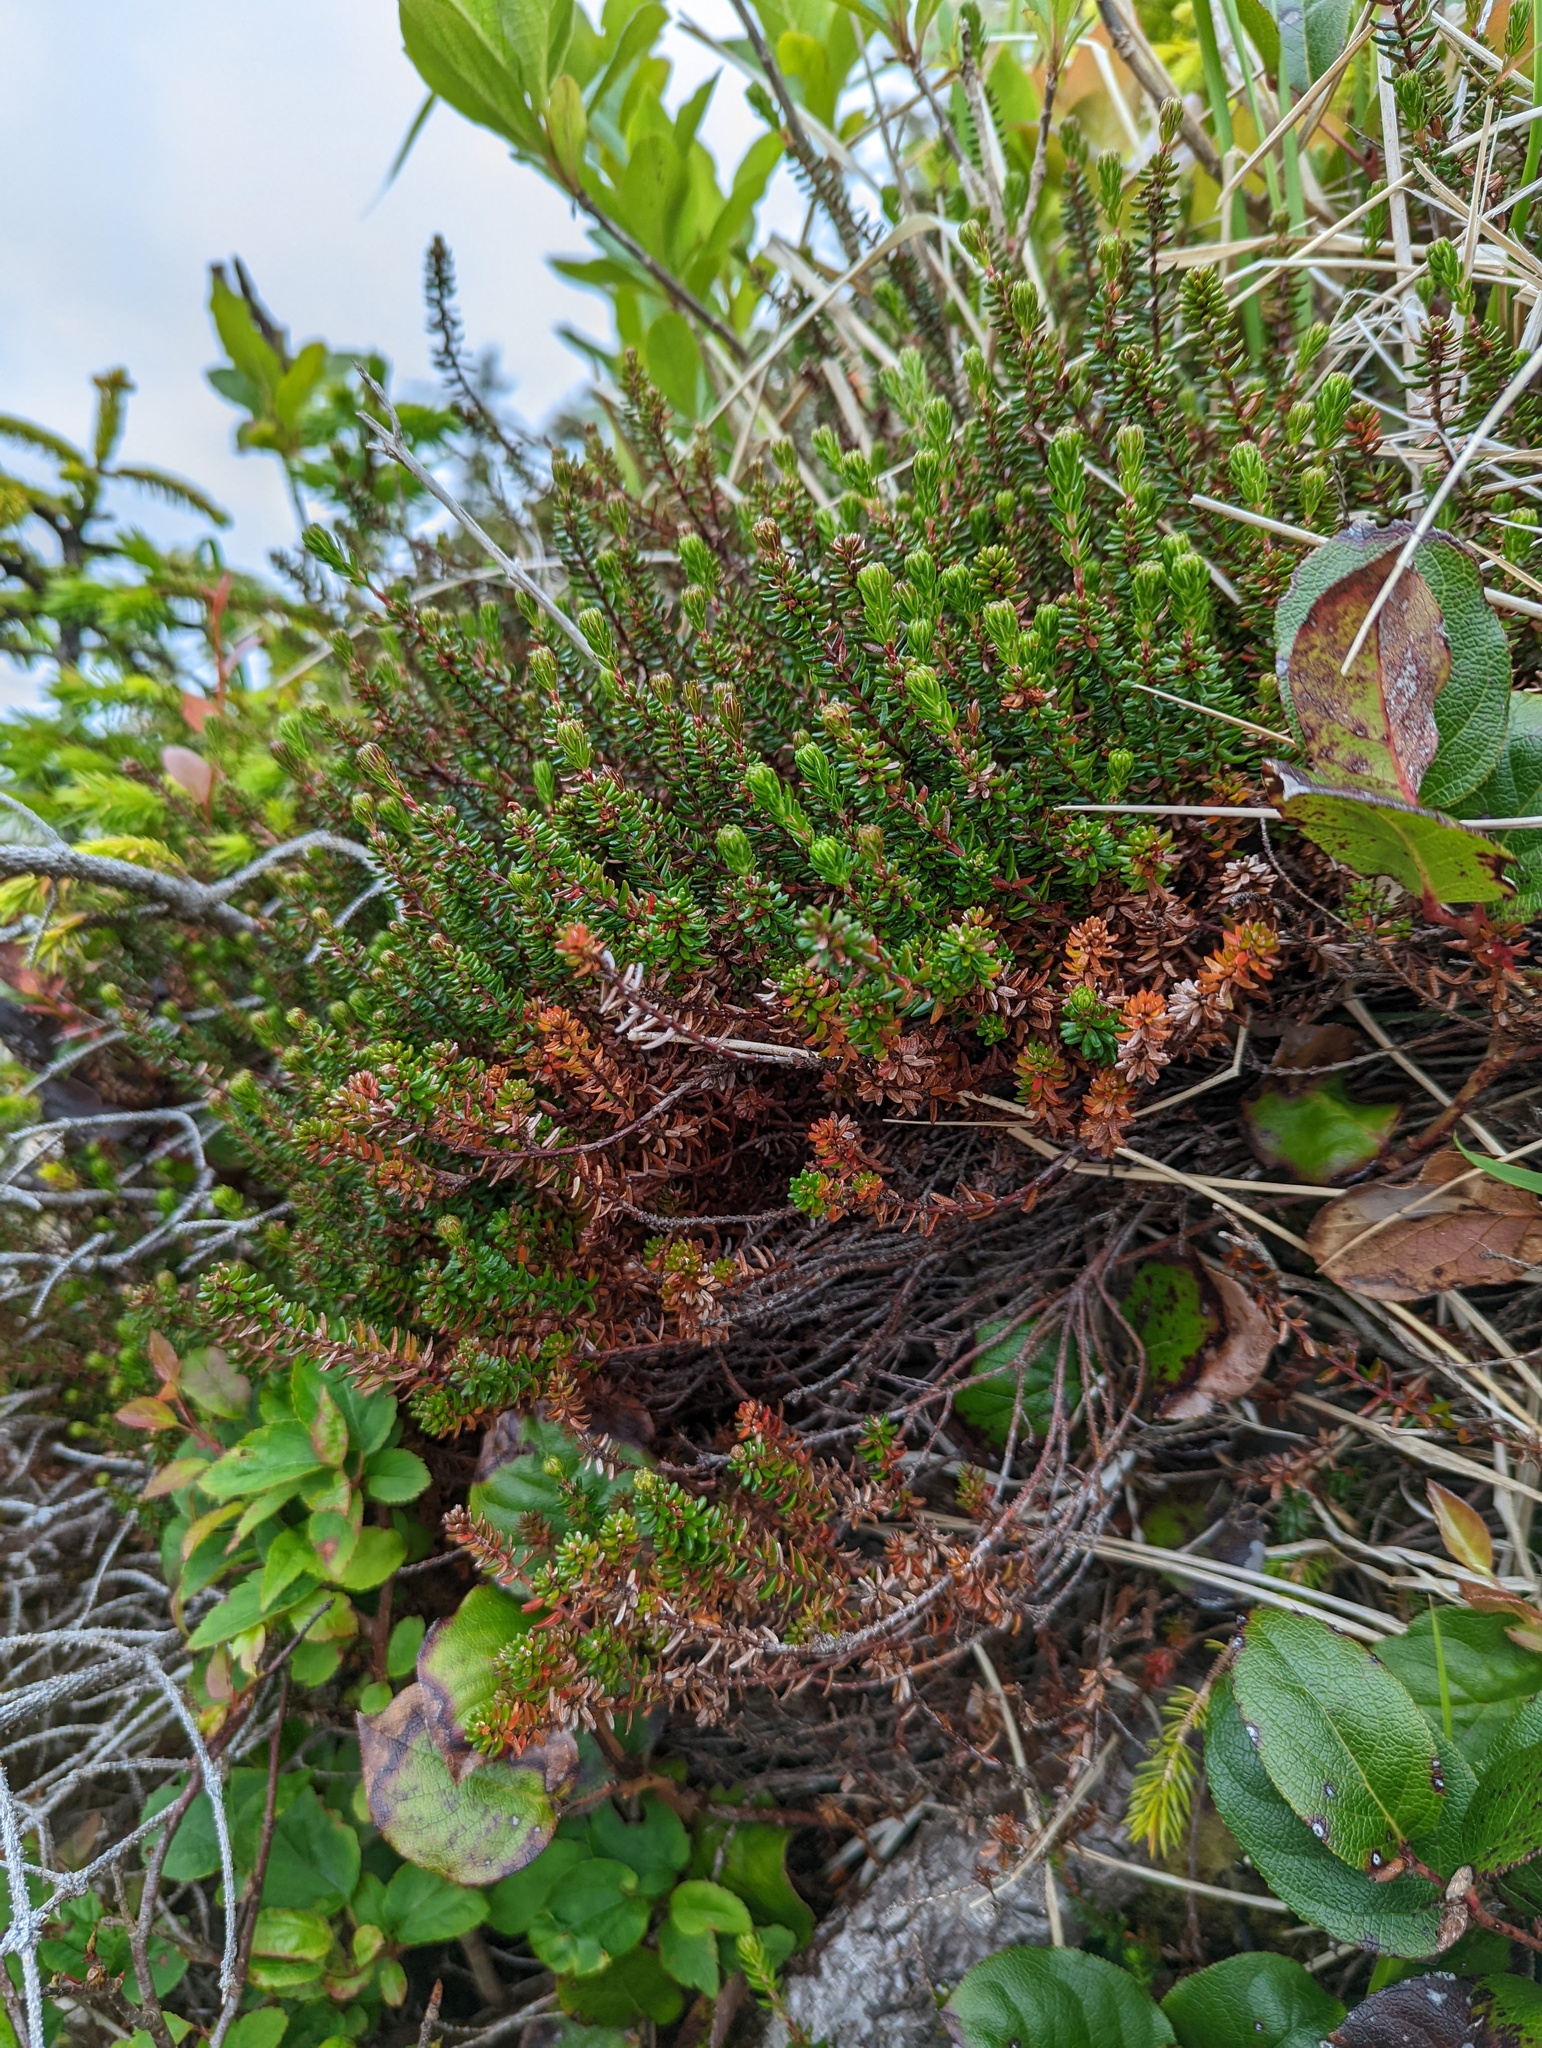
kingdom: Plantae
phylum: Tracheophyta
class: Magnoliopsida
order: Ericales
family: Ericaceae
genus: Empetrum
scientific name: Empetrum nigrum
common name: Black crowberry
